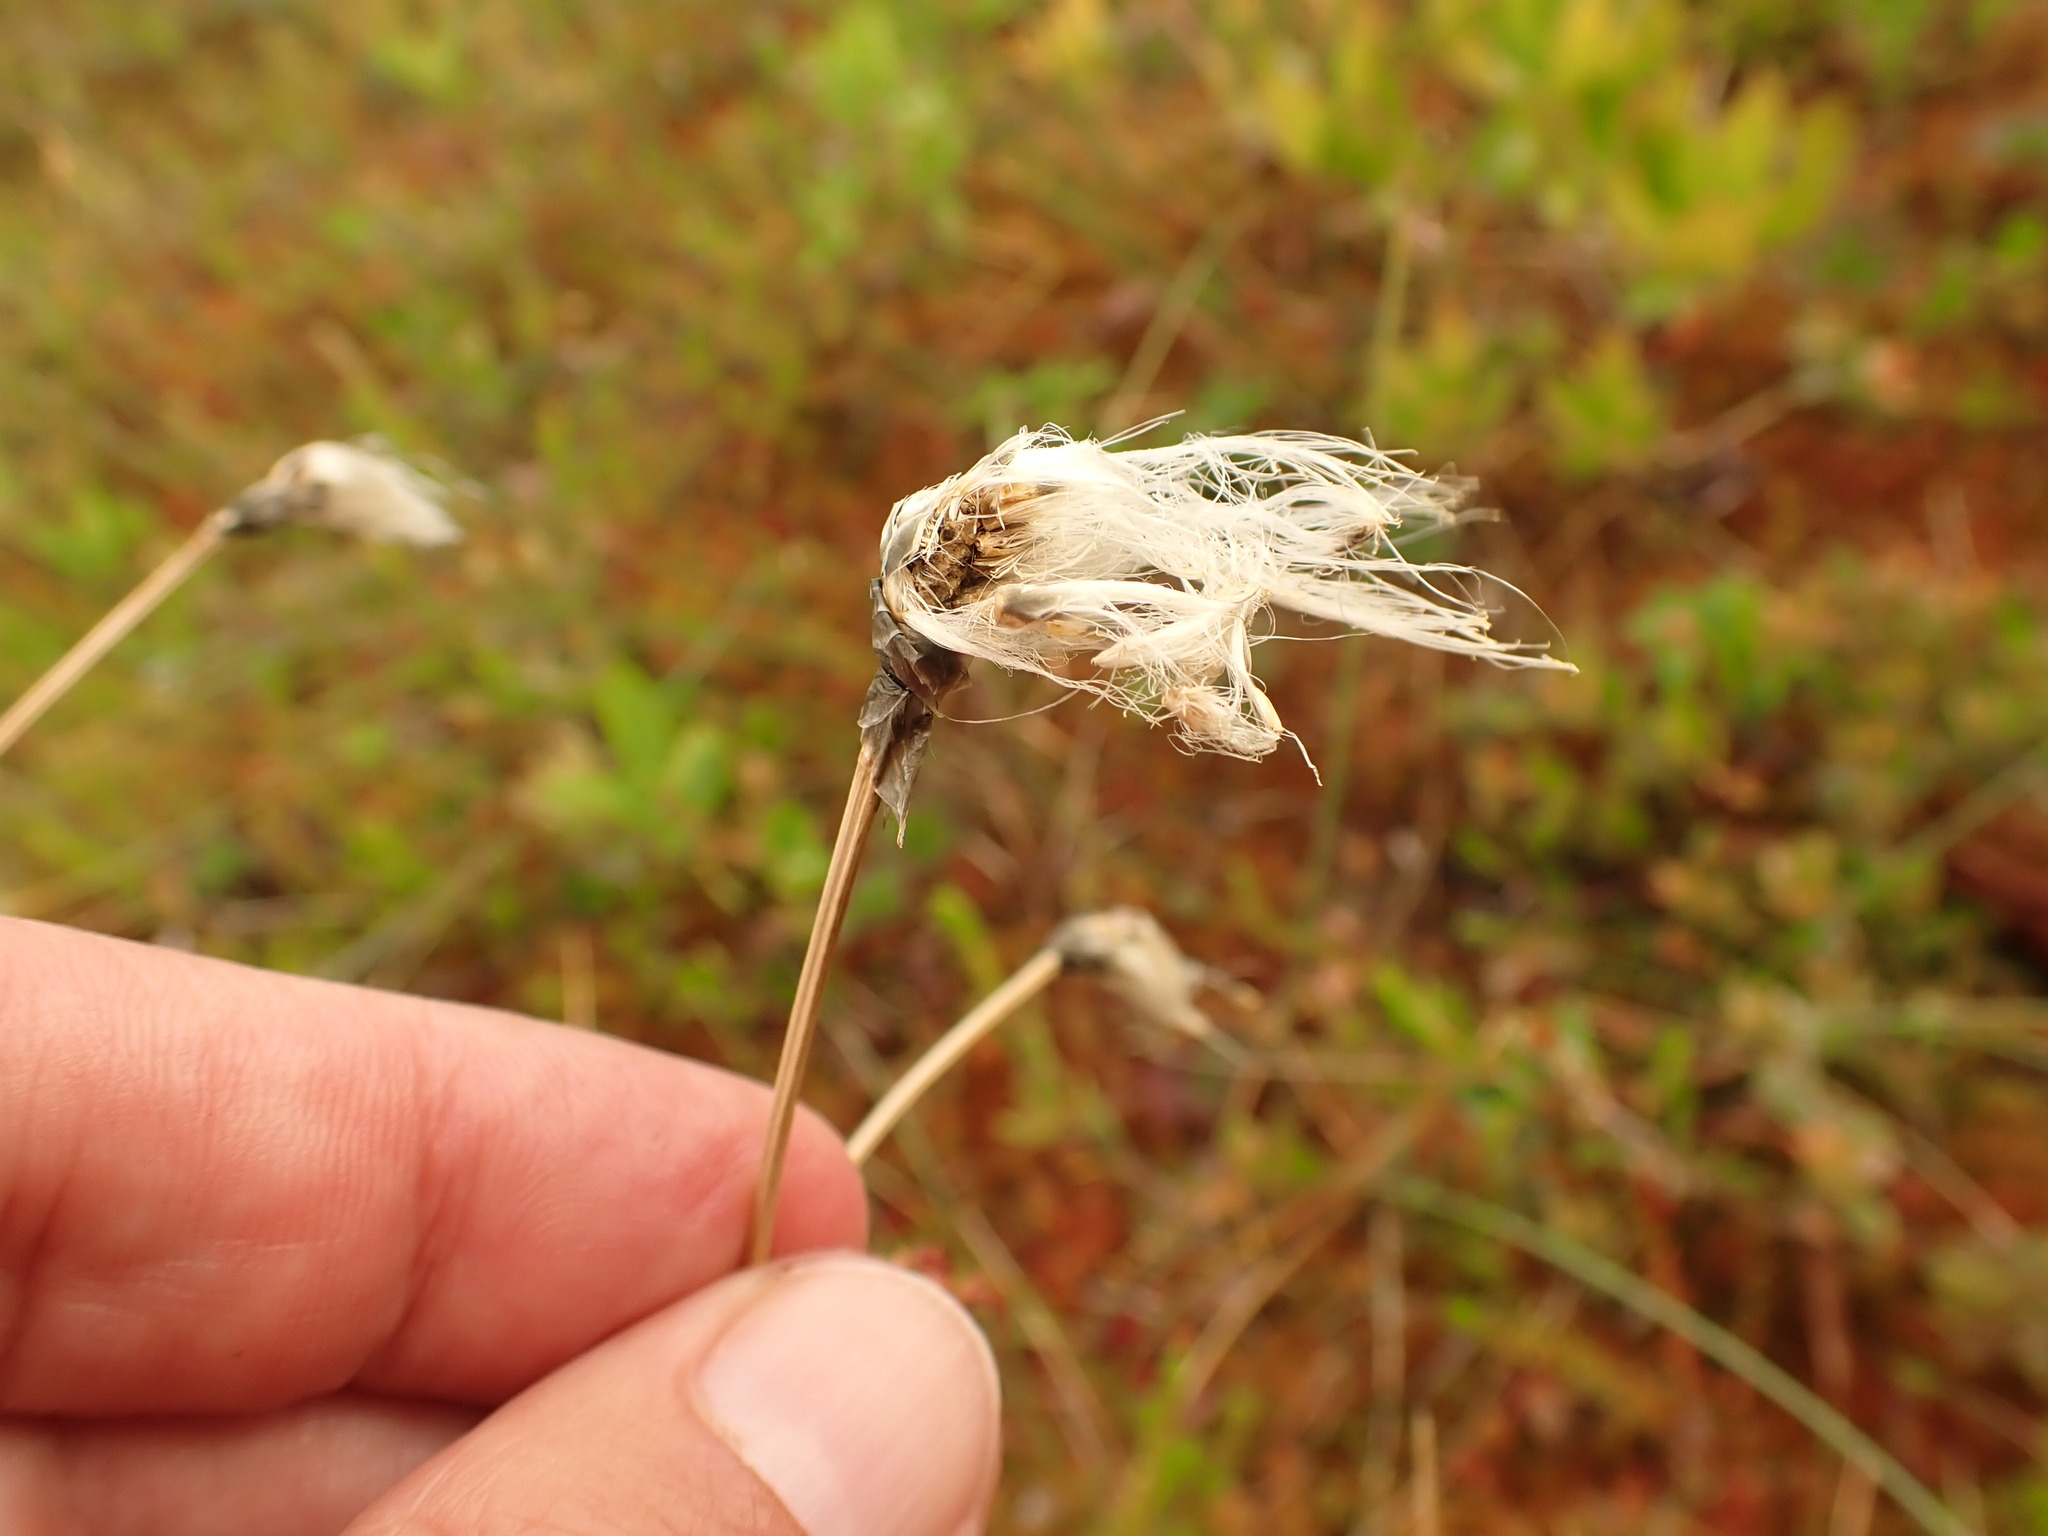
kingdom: Plantae
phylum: Tracheophyta
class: Liliopsida
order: Poales
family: Cyperaceae
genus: Eriophorum
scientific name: Eriophorum vaginatum
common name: Hare's-tail cottongrass
